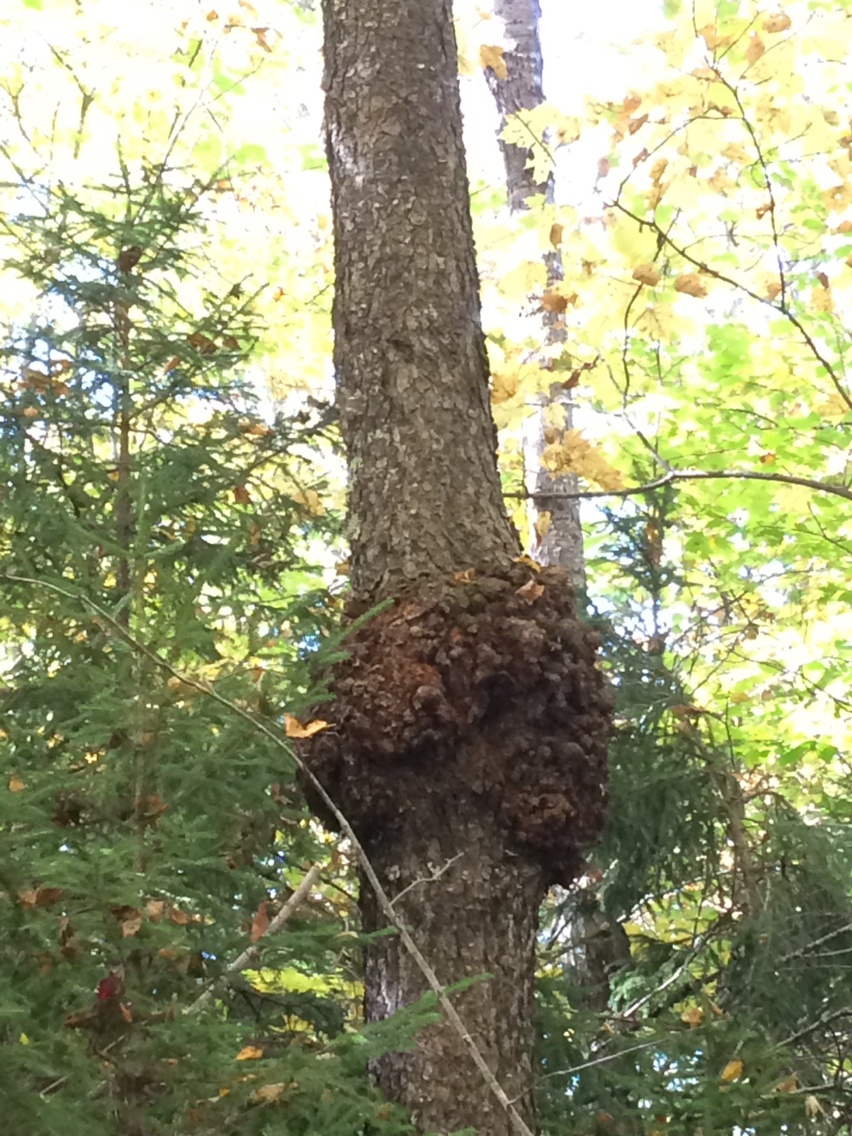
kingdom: Plantae
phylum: Tracheophyta
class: Magnoliopsida
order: Rosales
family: Rosaceae
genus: Prunus
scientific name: Prunus serotina
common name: Black cherry
